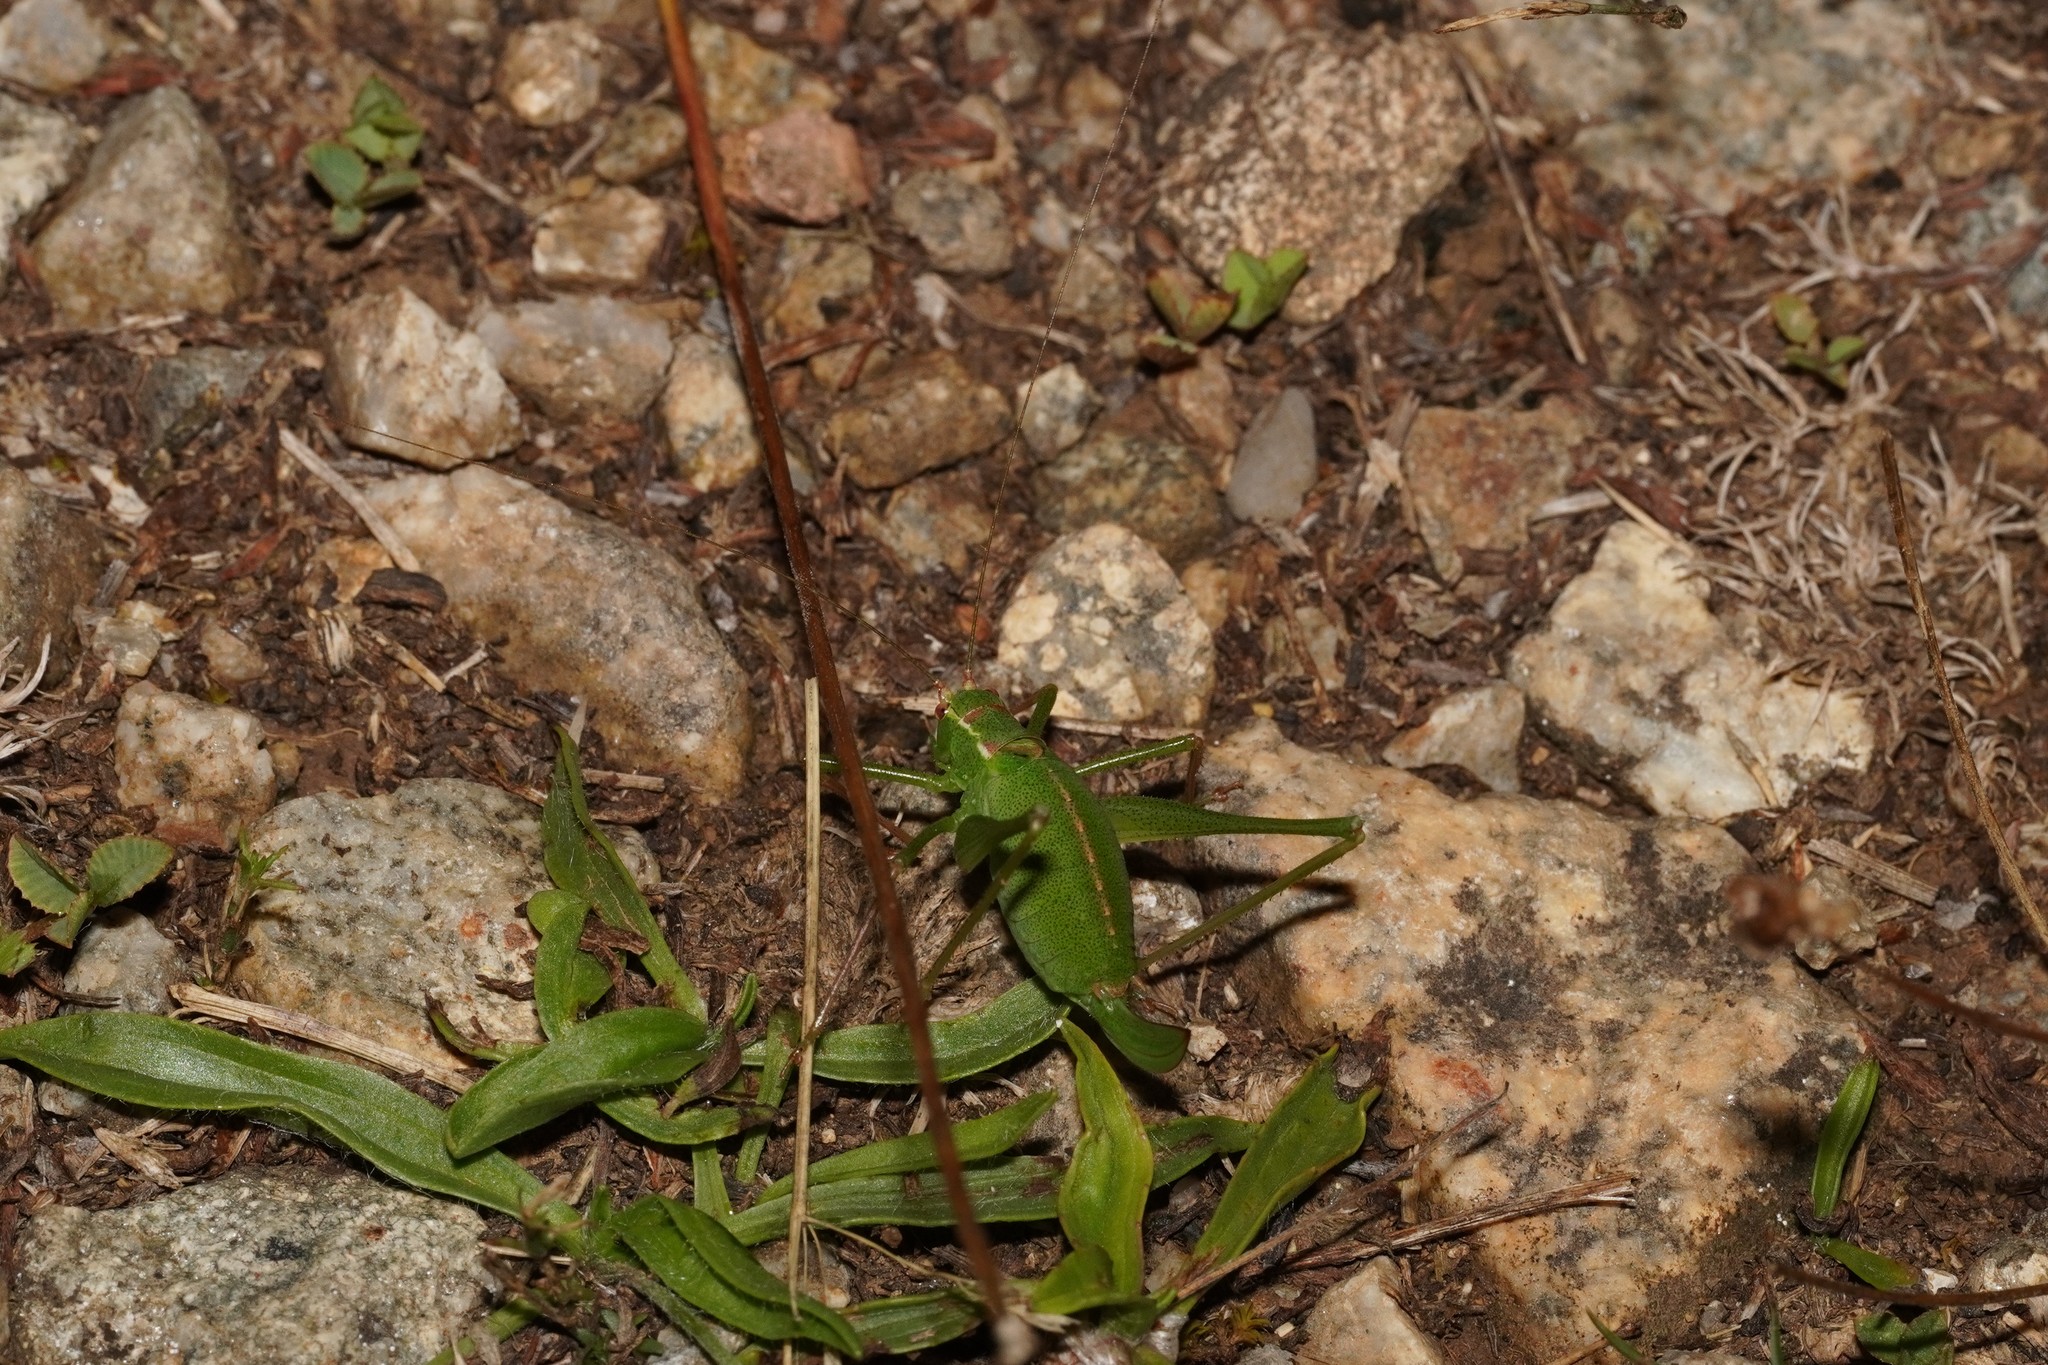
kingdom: Animalia
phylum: Arthropoda
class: Insecta
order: Orthoptera
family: Tettigoniidae
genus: Leptophyes
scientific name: Leptophyes punctatissima
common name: Speckled bush-cricket
